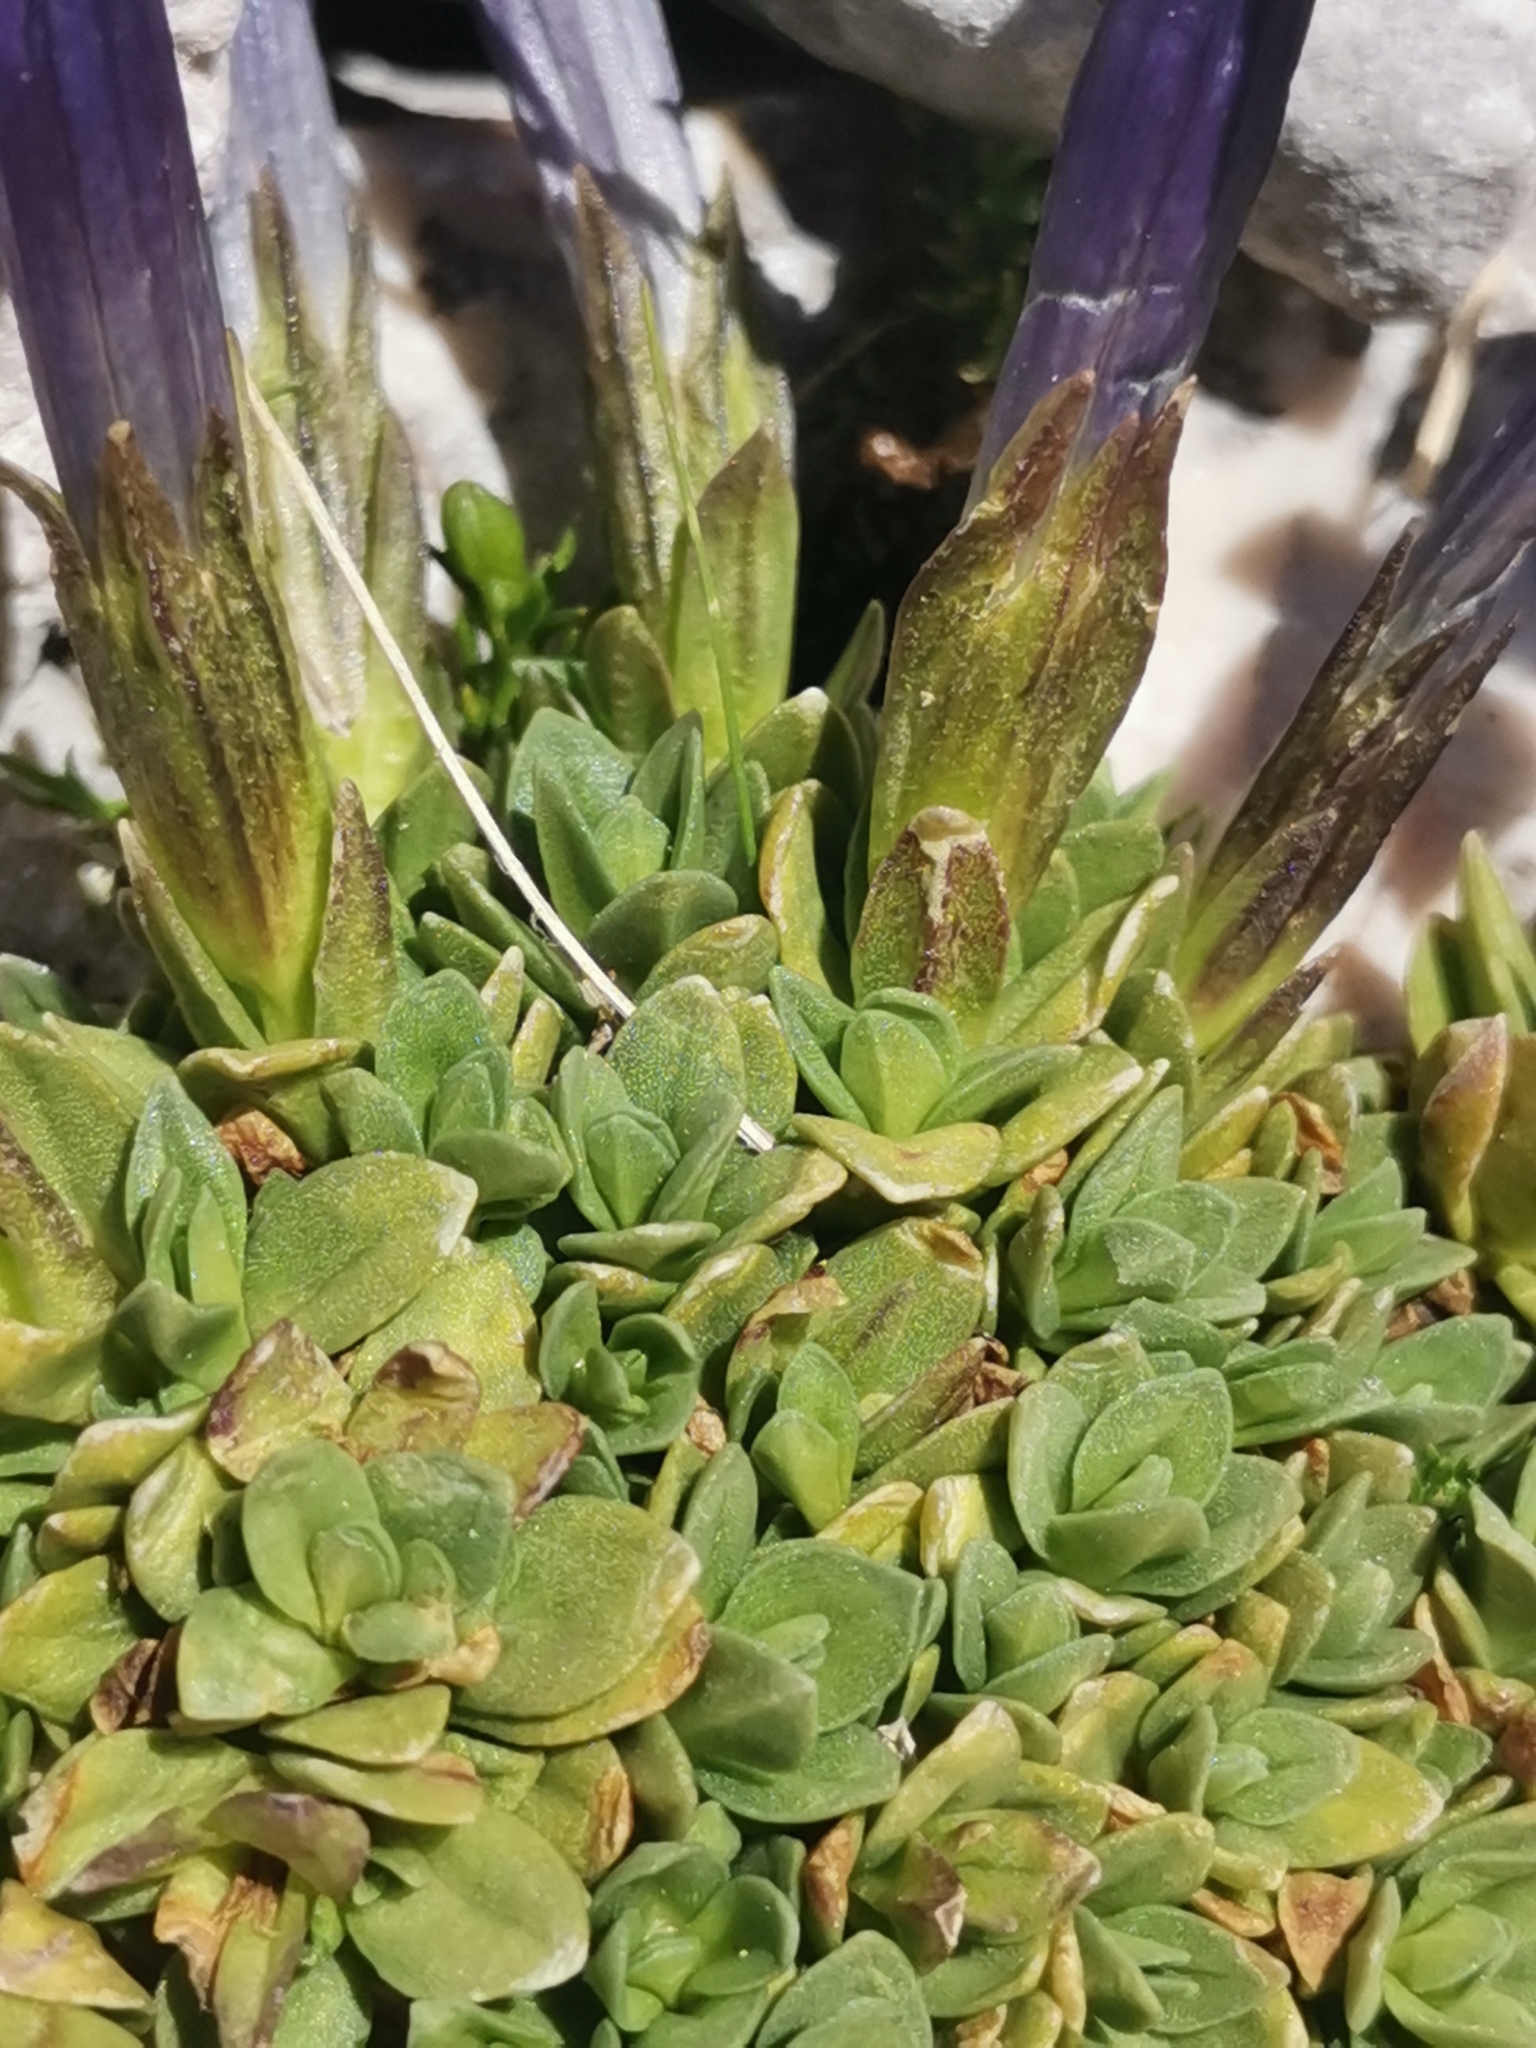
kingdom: Plantae
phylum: Tracheophyta
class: Magnoliopsida
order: Gentianales
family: Gentianaceae
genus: Gentiana
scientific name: Gentiana terglouensis
